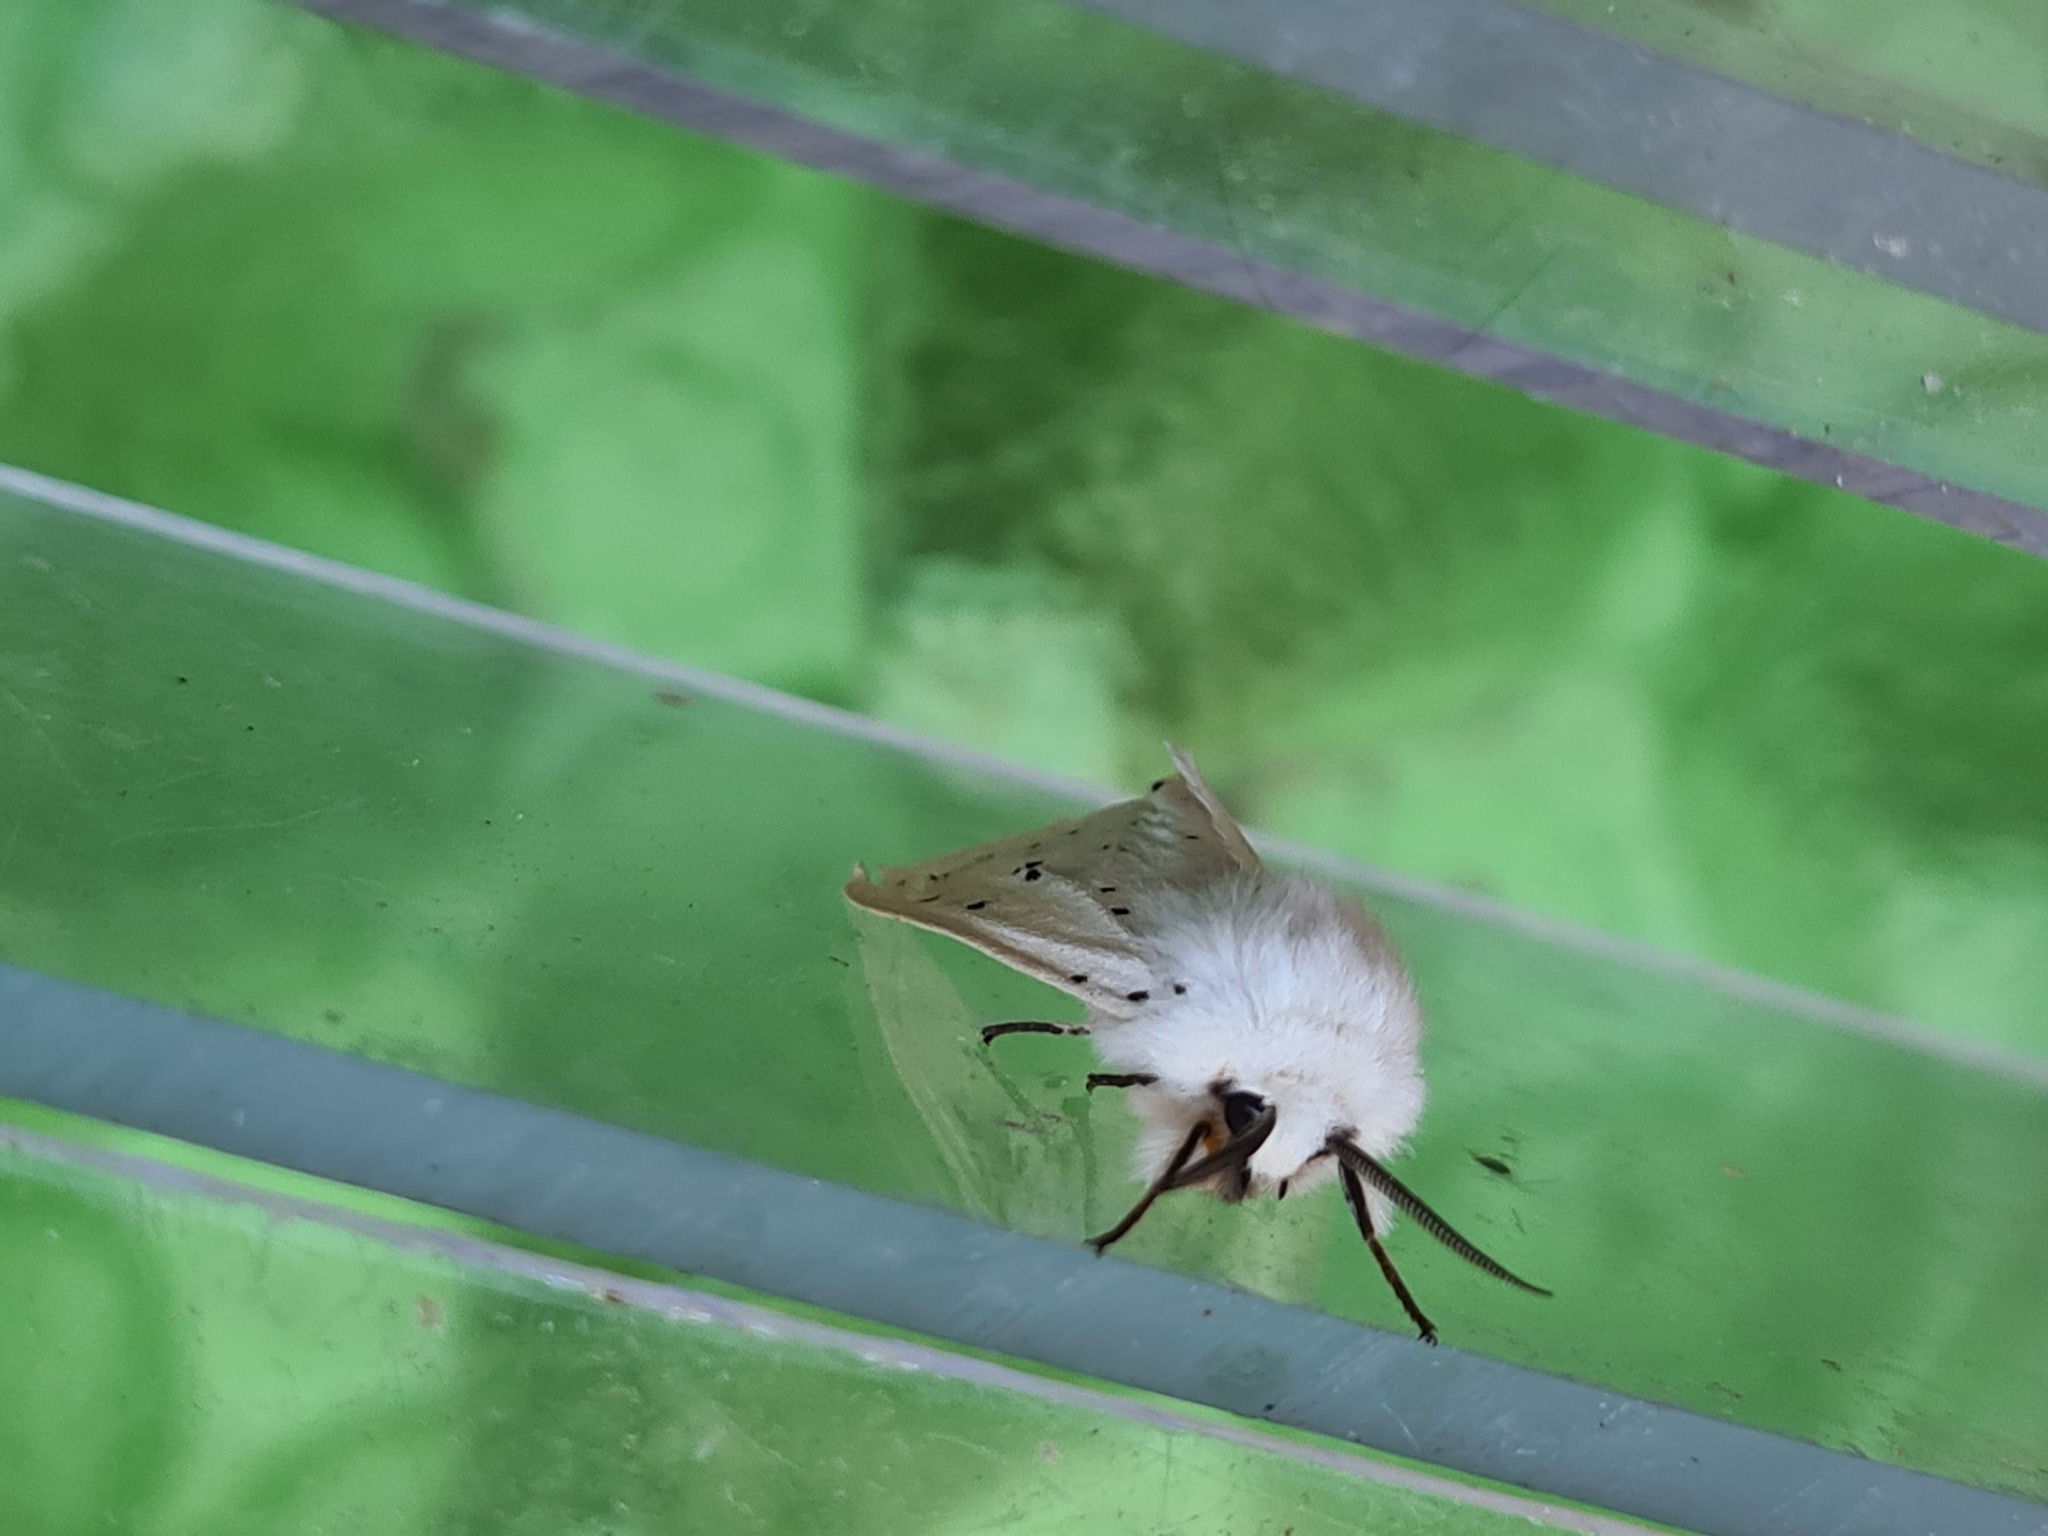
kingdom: Animalia
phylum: Arthropoda
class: Insecta
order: Lepidoptera
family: Erebidae
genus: Spilosoma
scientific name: Spilosoma lubricipeda
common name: White ermine
